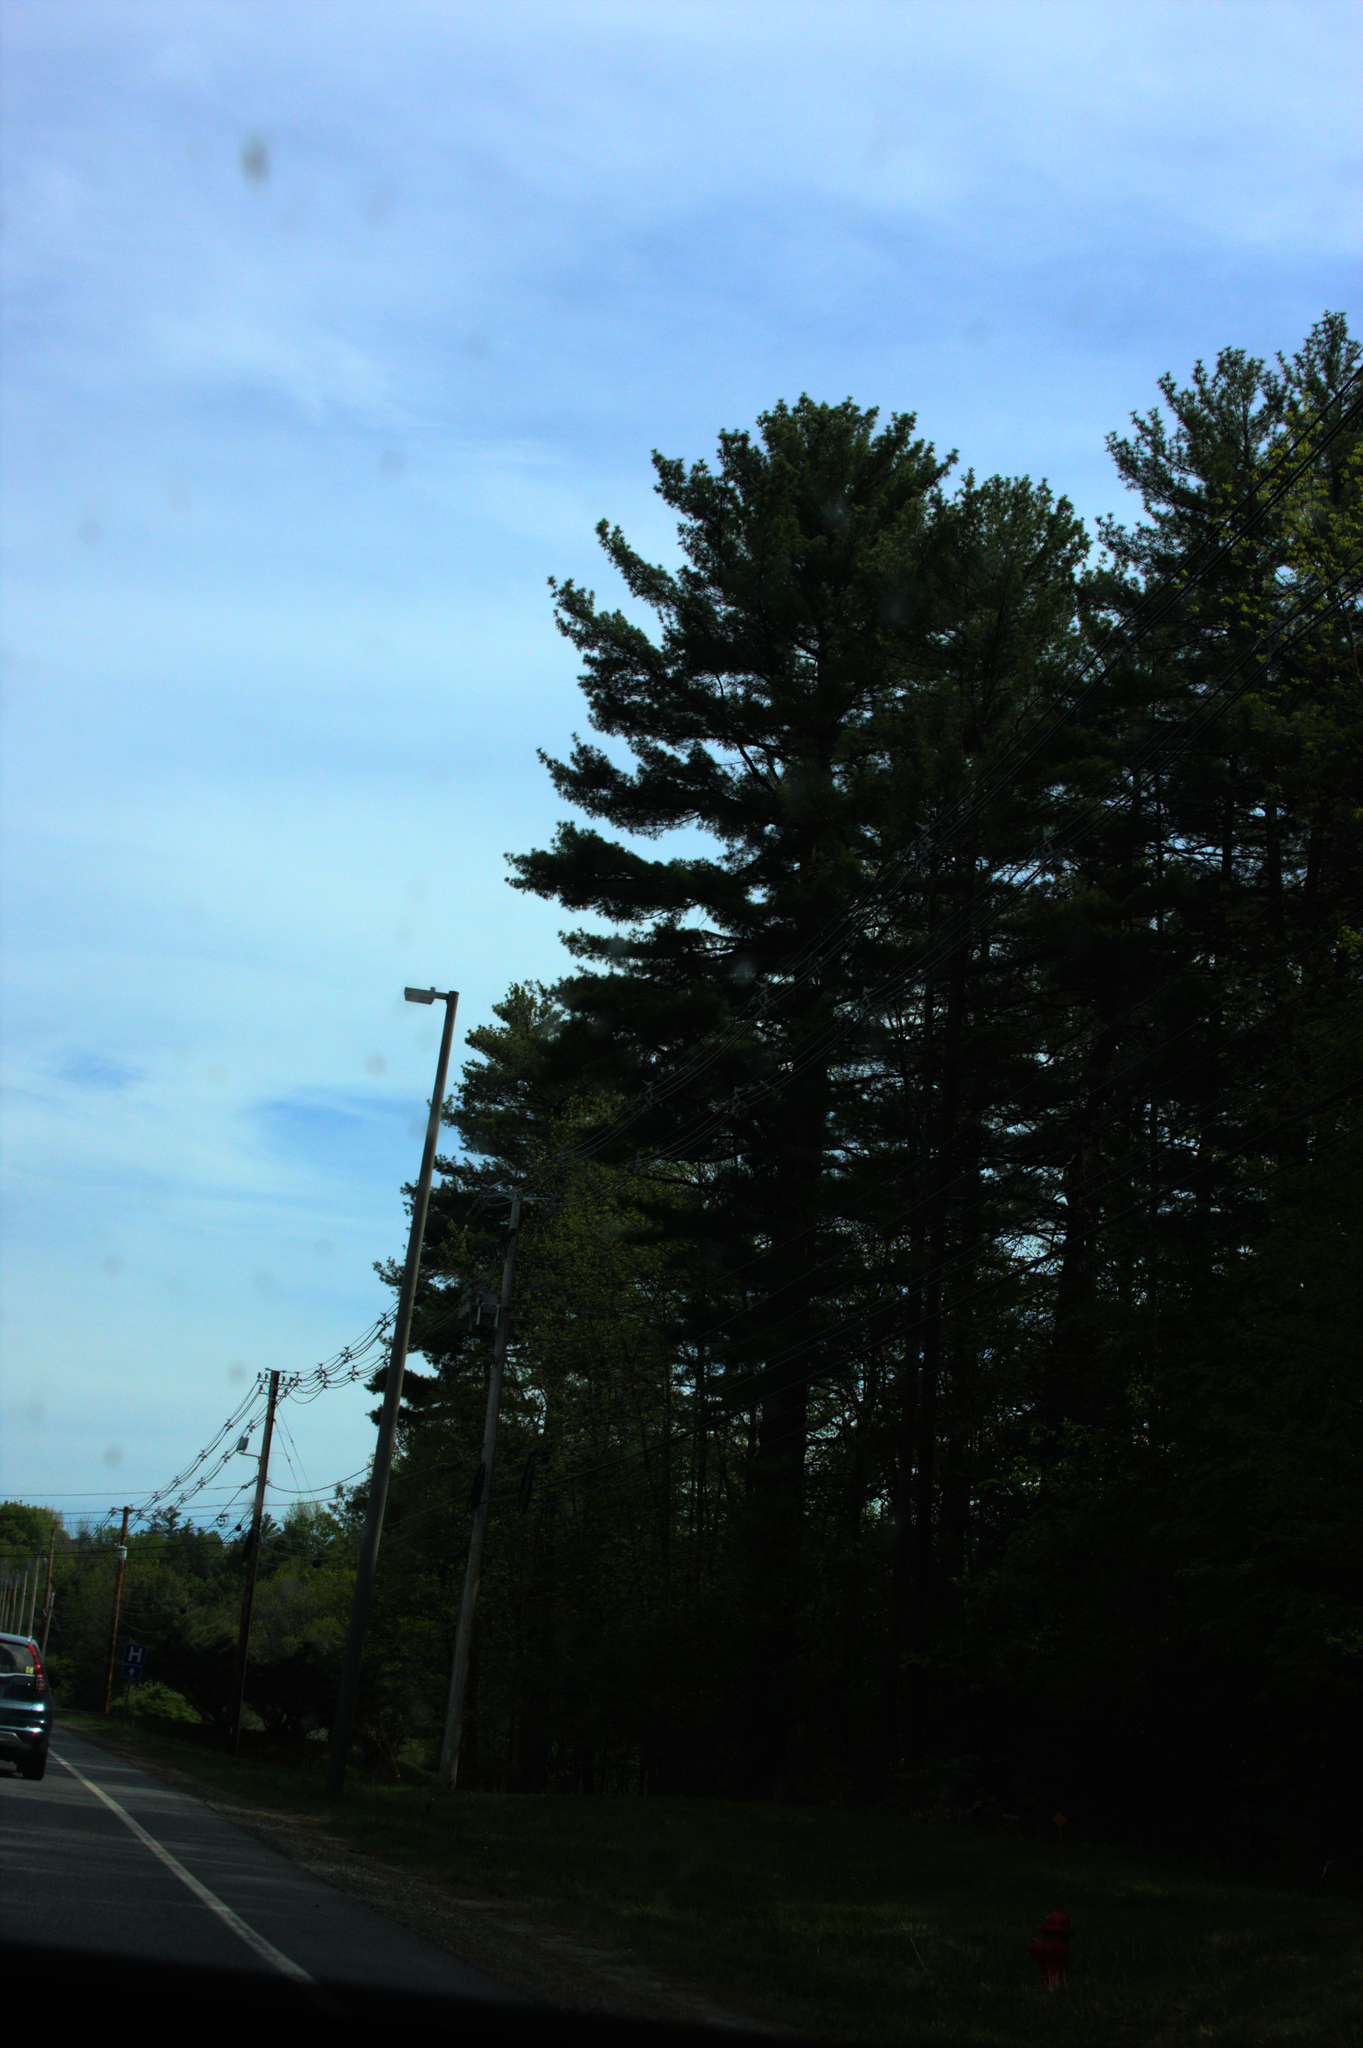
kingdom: Plantae
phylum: Tracheophyta
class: Pinopsida
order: Pinales
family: Pinaceae
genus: Pinus
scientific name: Pinus strobus
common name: Weymouth pine
